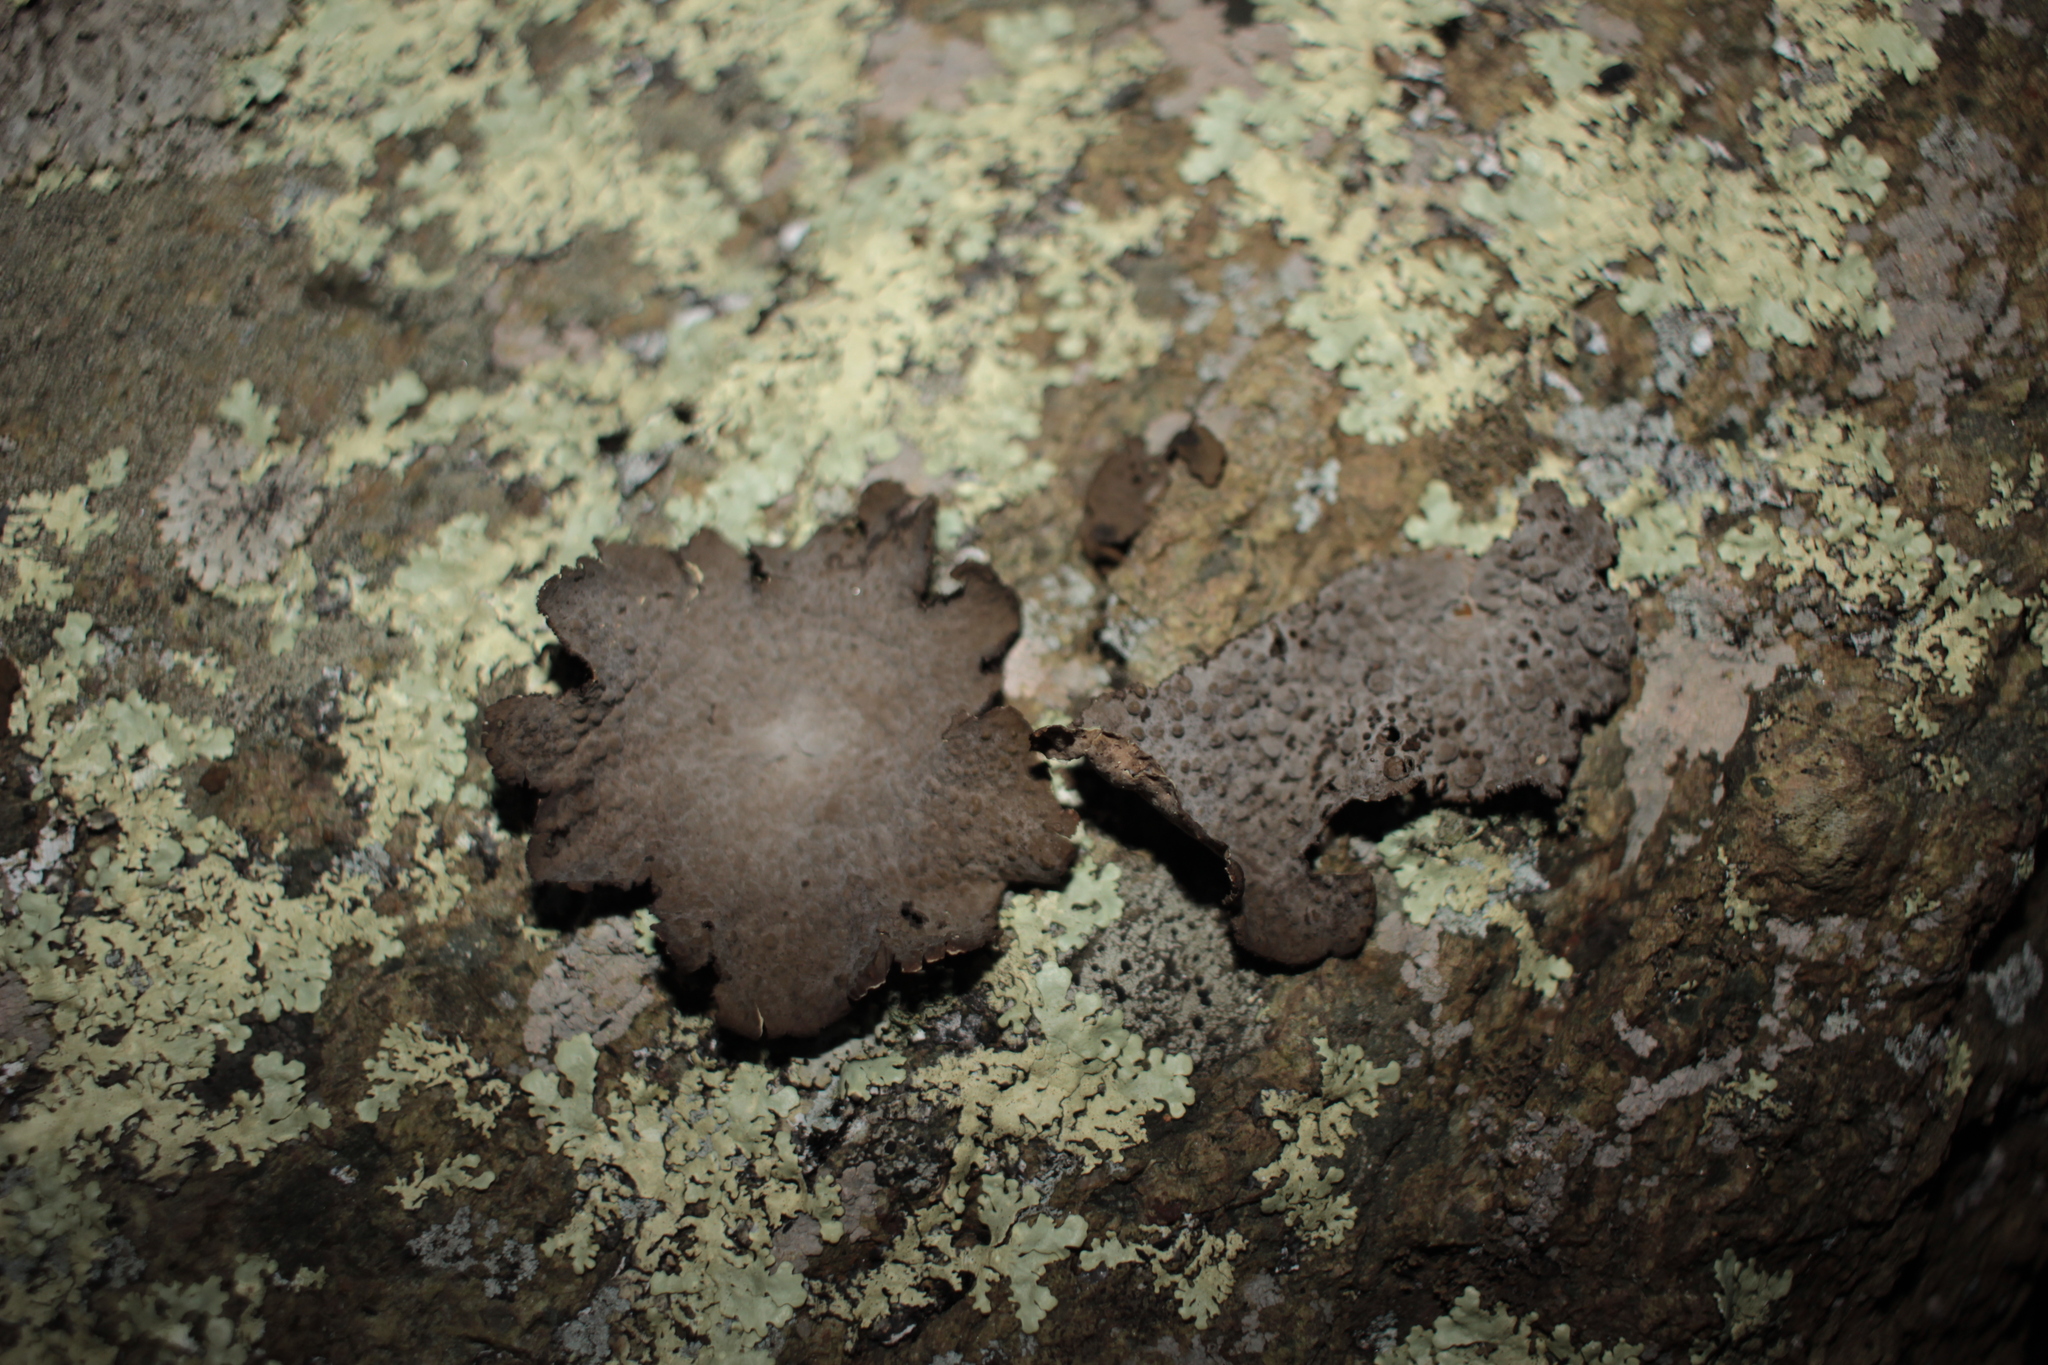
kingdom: Fungi
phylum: Ascomycota
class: Lecanoromycetes
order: Umbilicariales
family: Umbilicariaceae
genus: Lasallia
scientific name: Lasallia papulosa
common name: Common toadskin lichen
